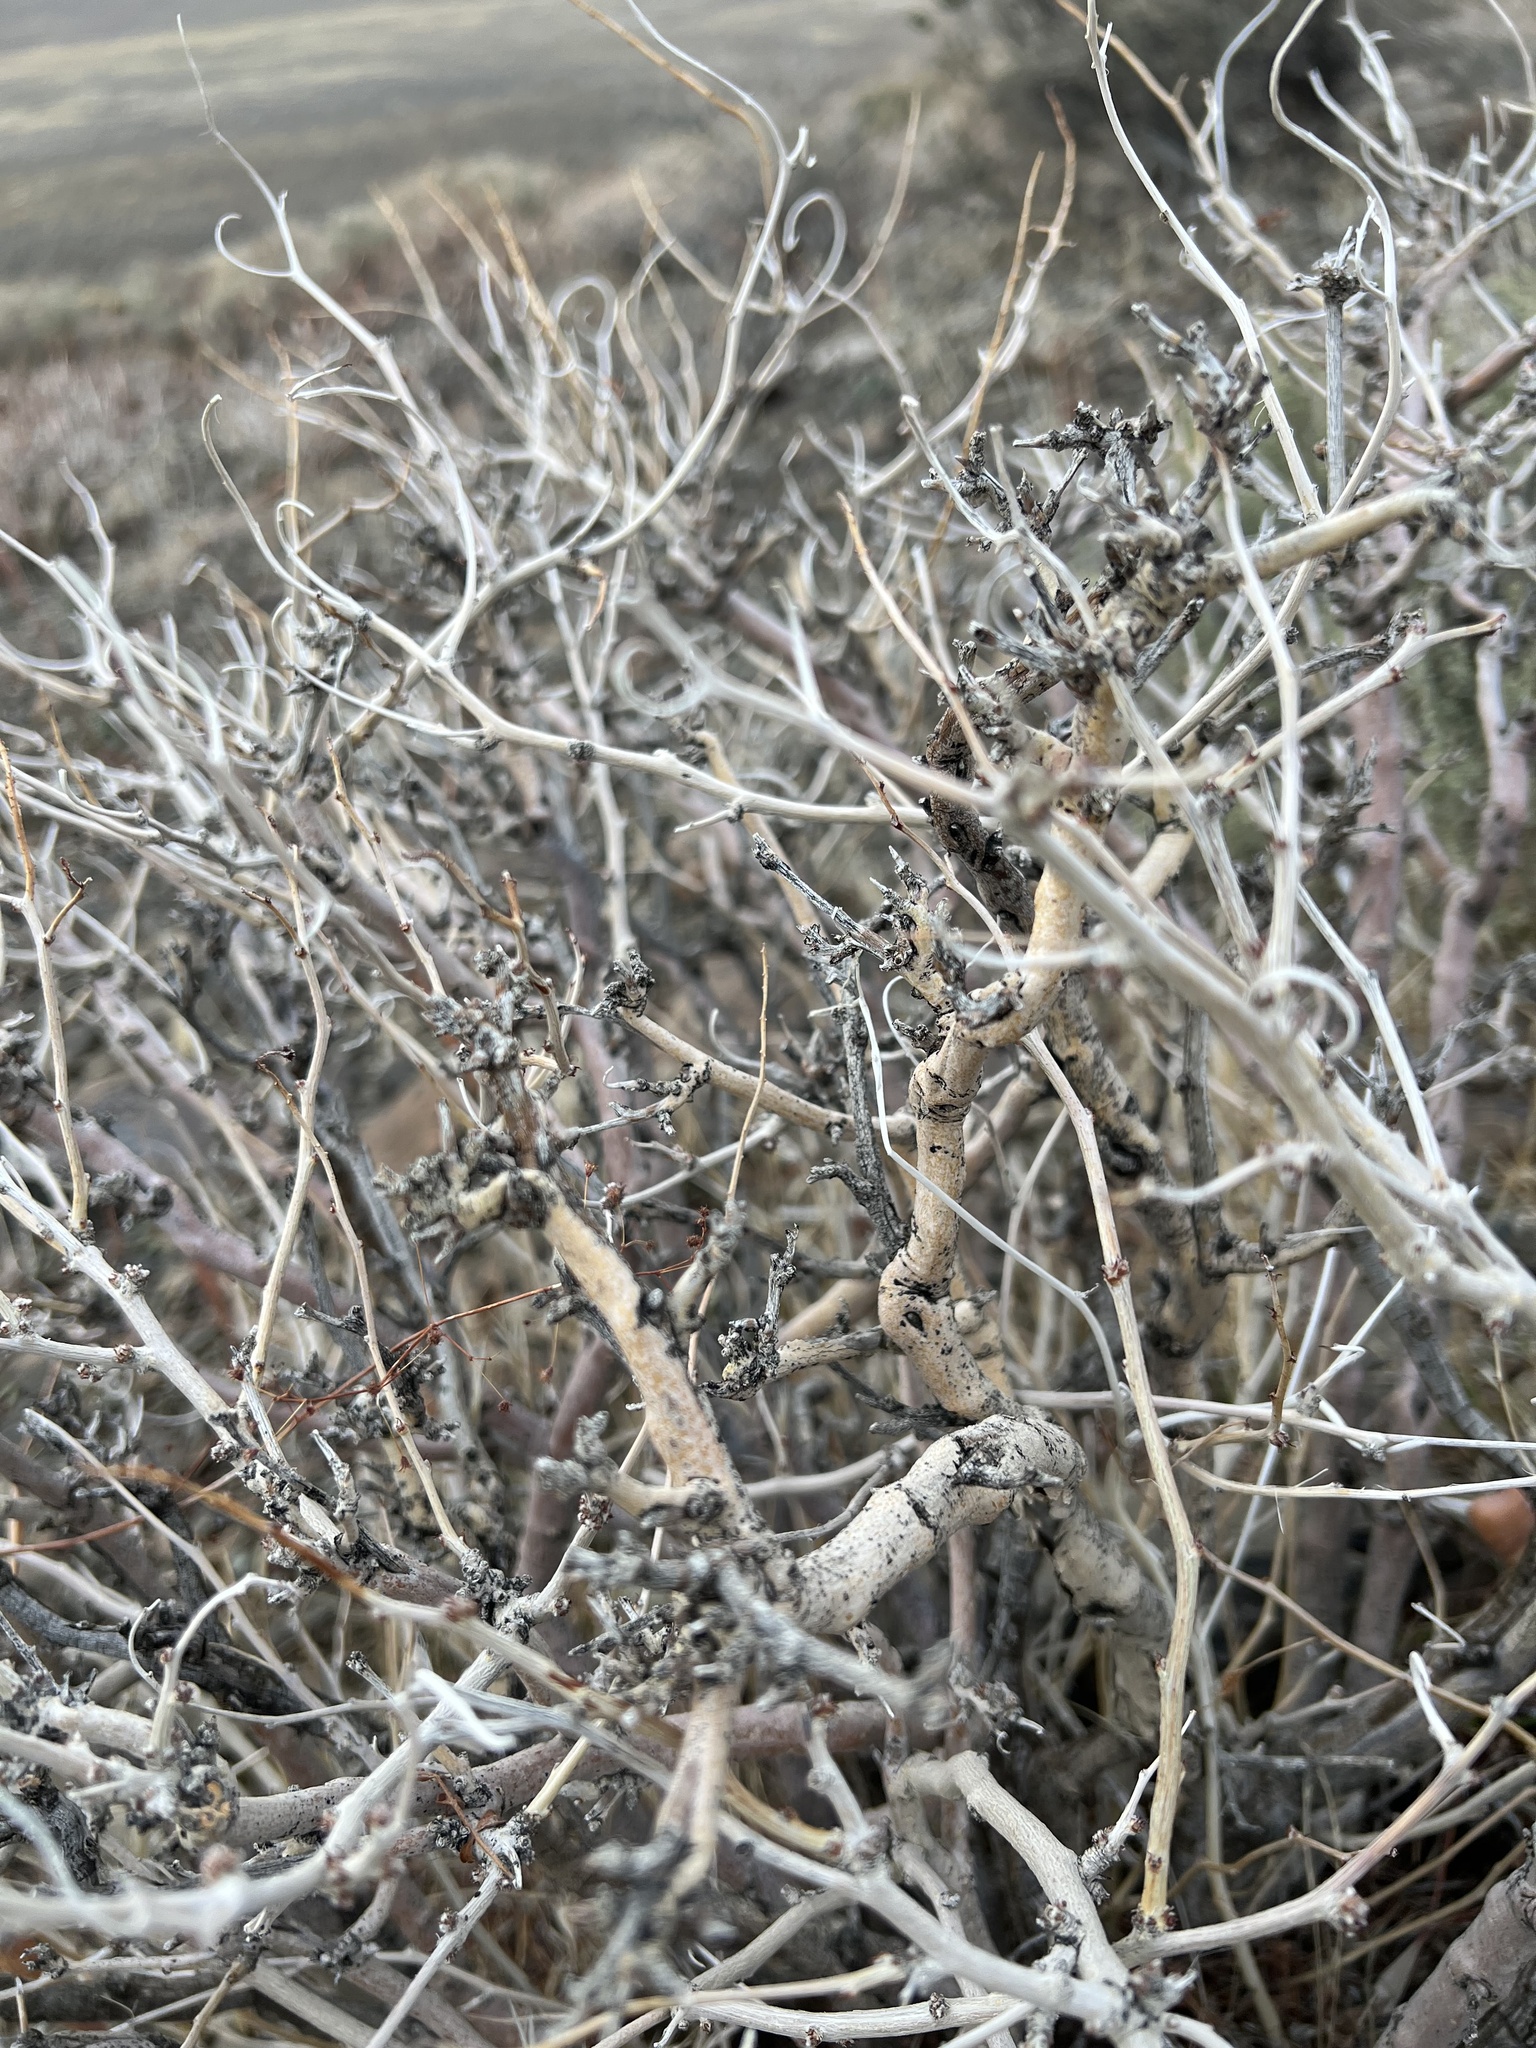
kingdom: Plantae
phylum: Tracheophyta
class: Magnoliopsida
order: Fabales
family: Fabaceae
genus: Psorothamnus
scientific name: Psorothamnus arborescens
